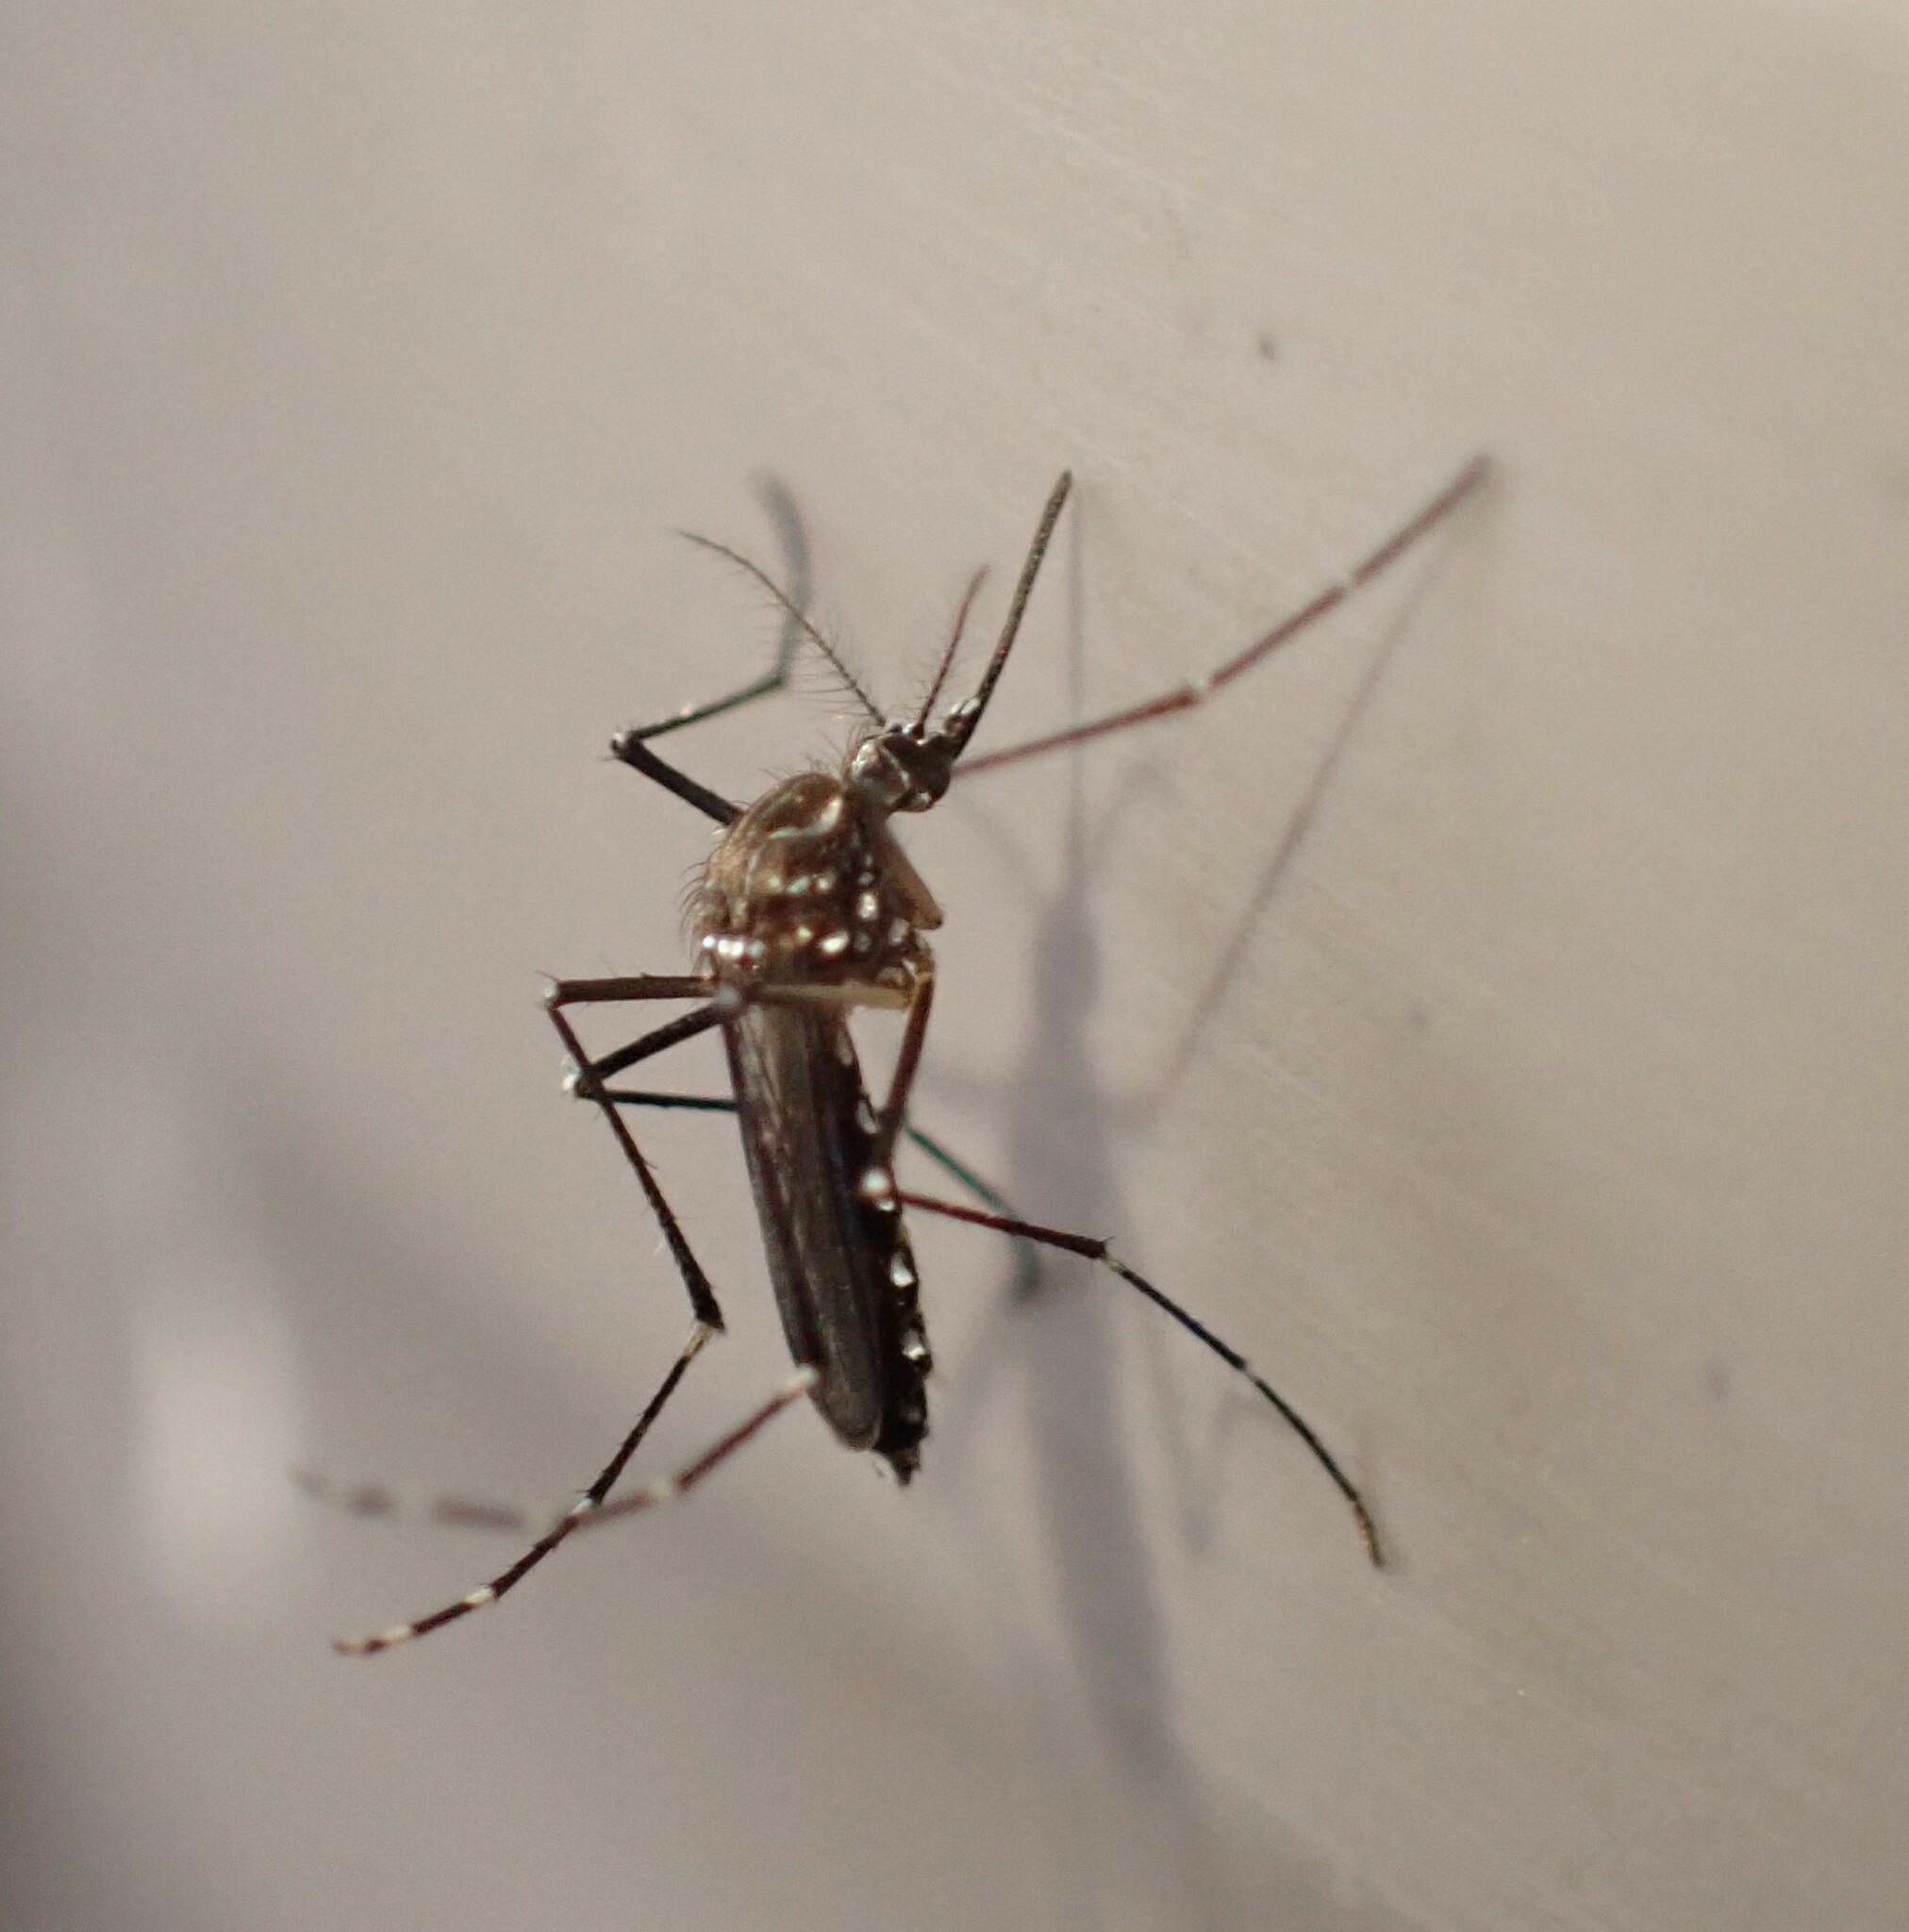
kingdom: Animalia
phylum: Arthropoda
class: Insecta
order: Diptera
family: Culicidae
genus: Aedes
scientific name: Aedes aegypti
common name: Yellow fever mosquito
